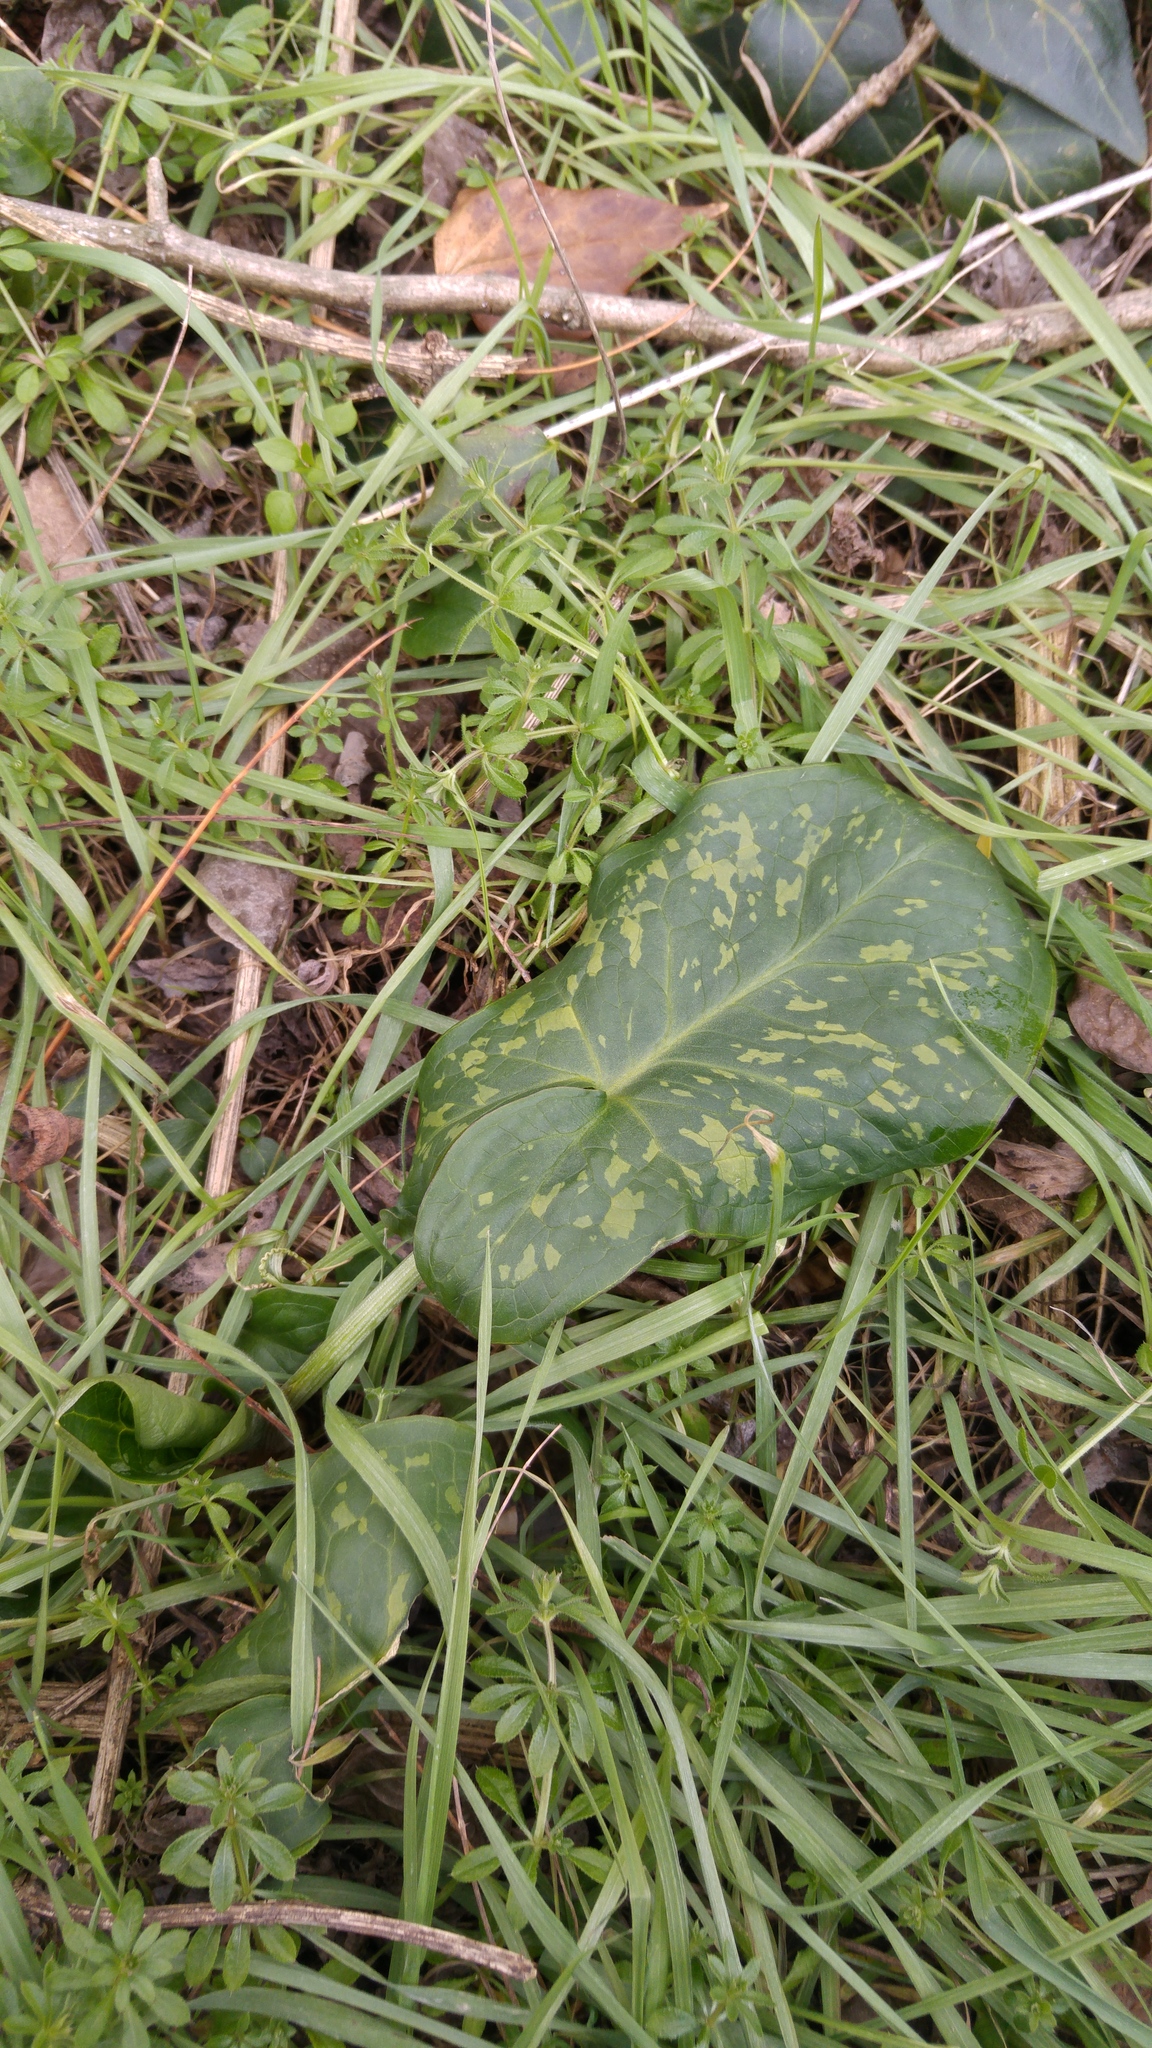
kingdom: Plantae
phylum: Tracheophyta
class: Liliopsida
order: Alismatales
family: Araceae
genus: Arum
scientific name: Arum italicum
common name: Italian lords-and-ladies
